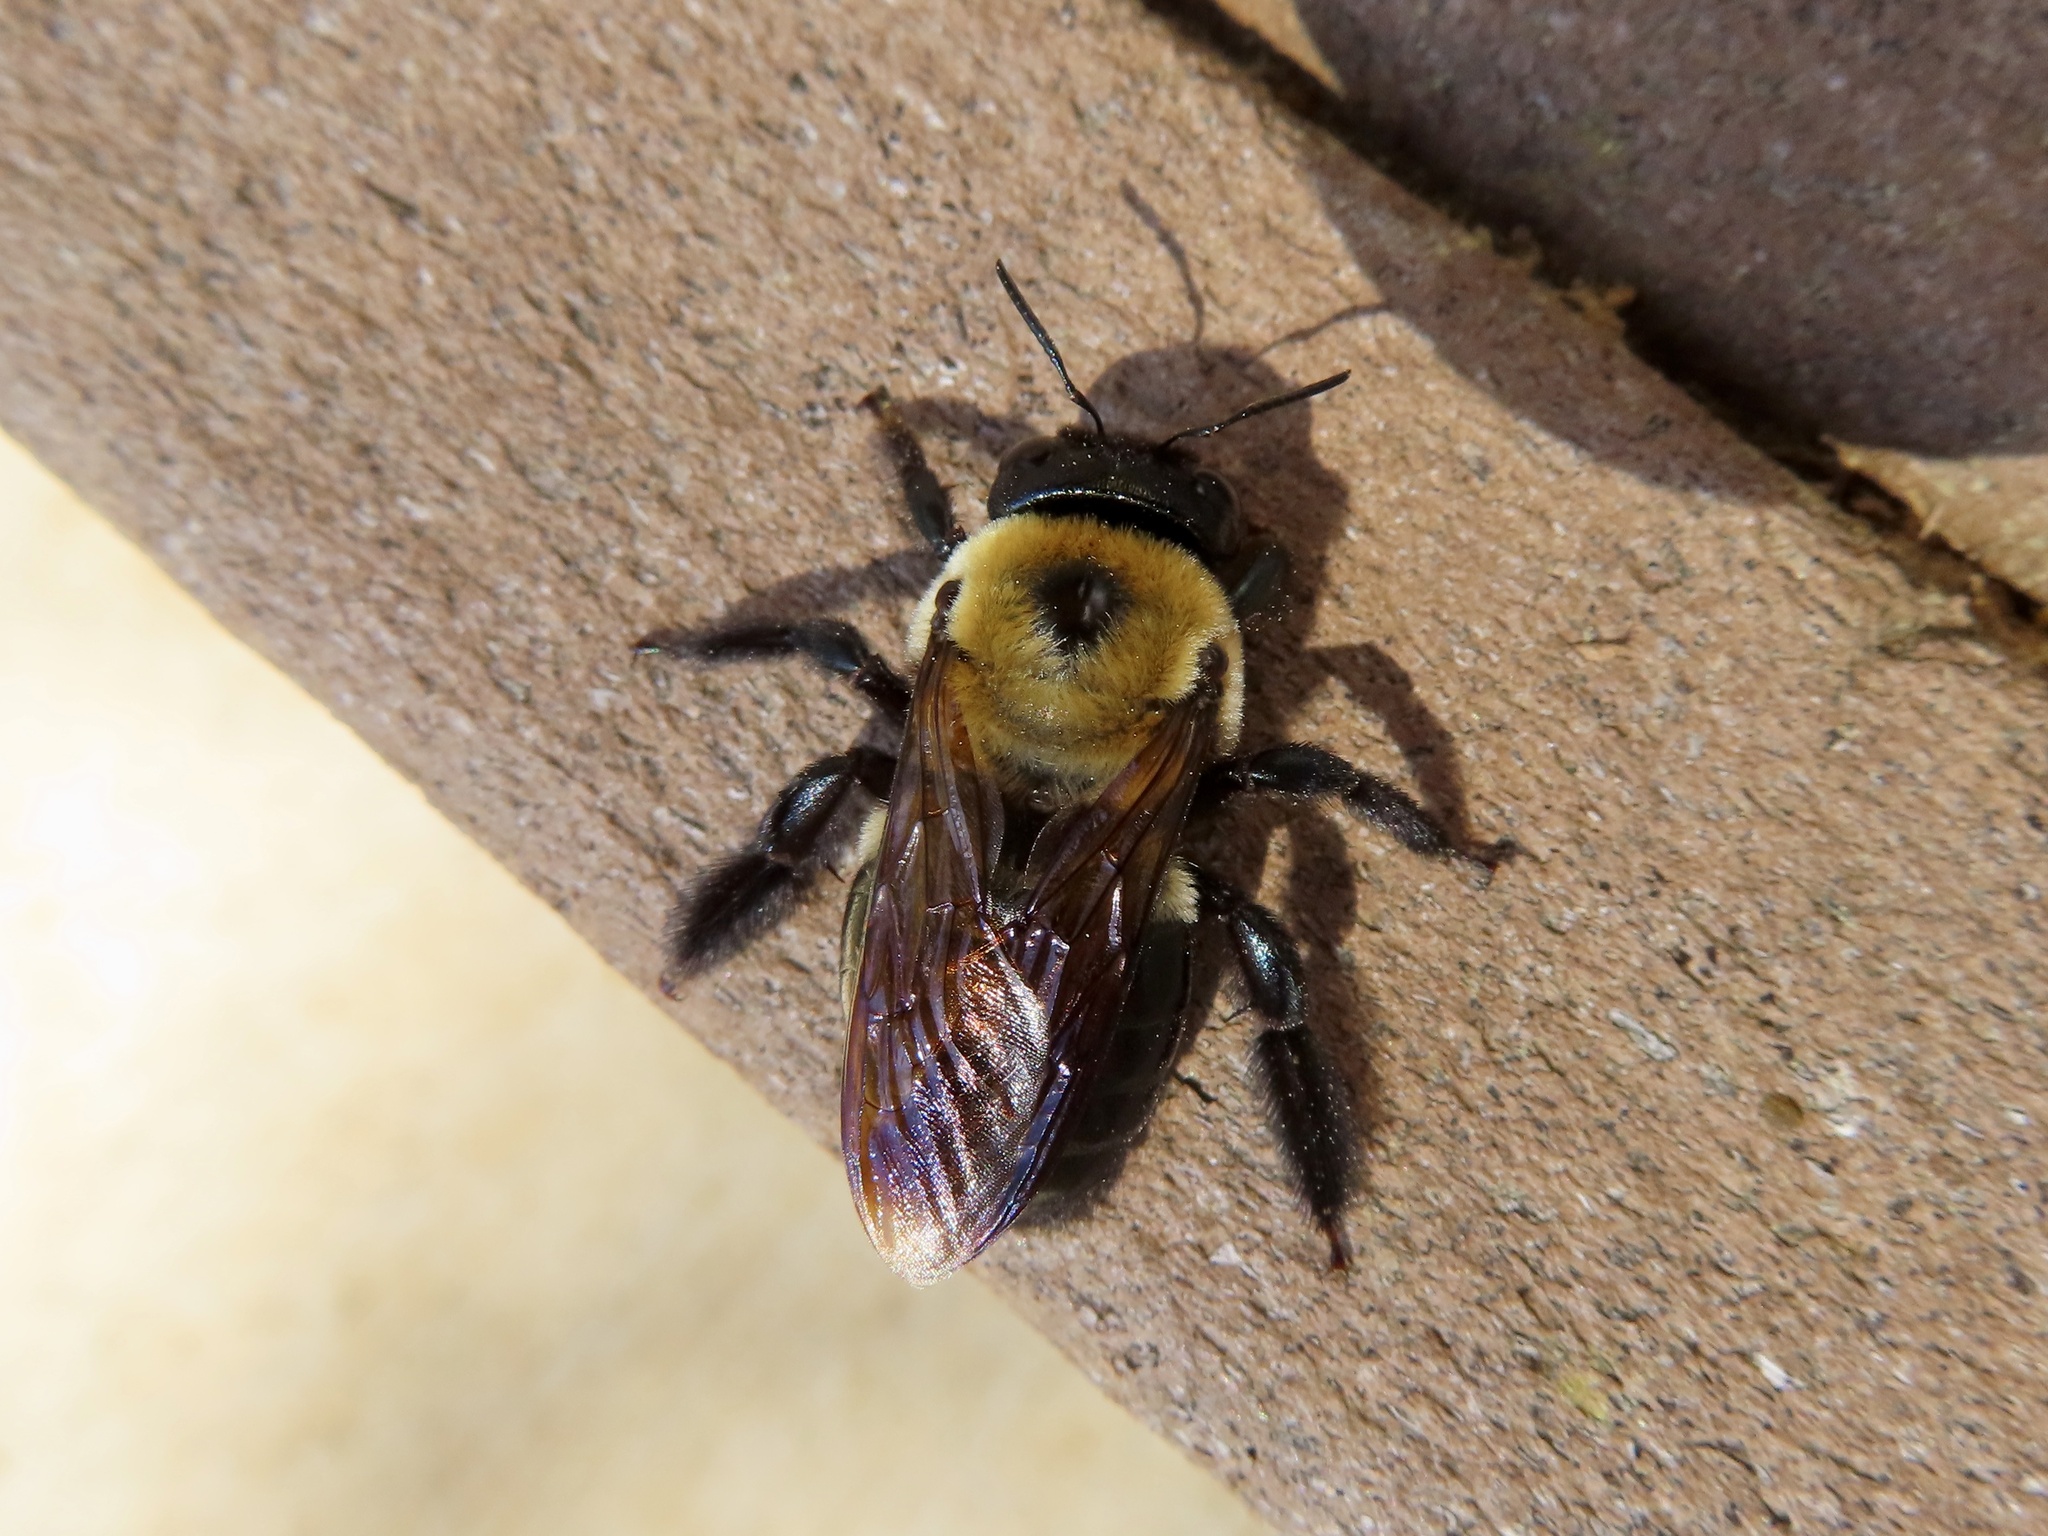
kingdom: Animalia
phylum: Arthropoda
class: Insecta
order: Hymenoptera
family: Apidae
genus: Xylocopa
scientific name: Xylocopa virginica
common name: Carpenter bee
